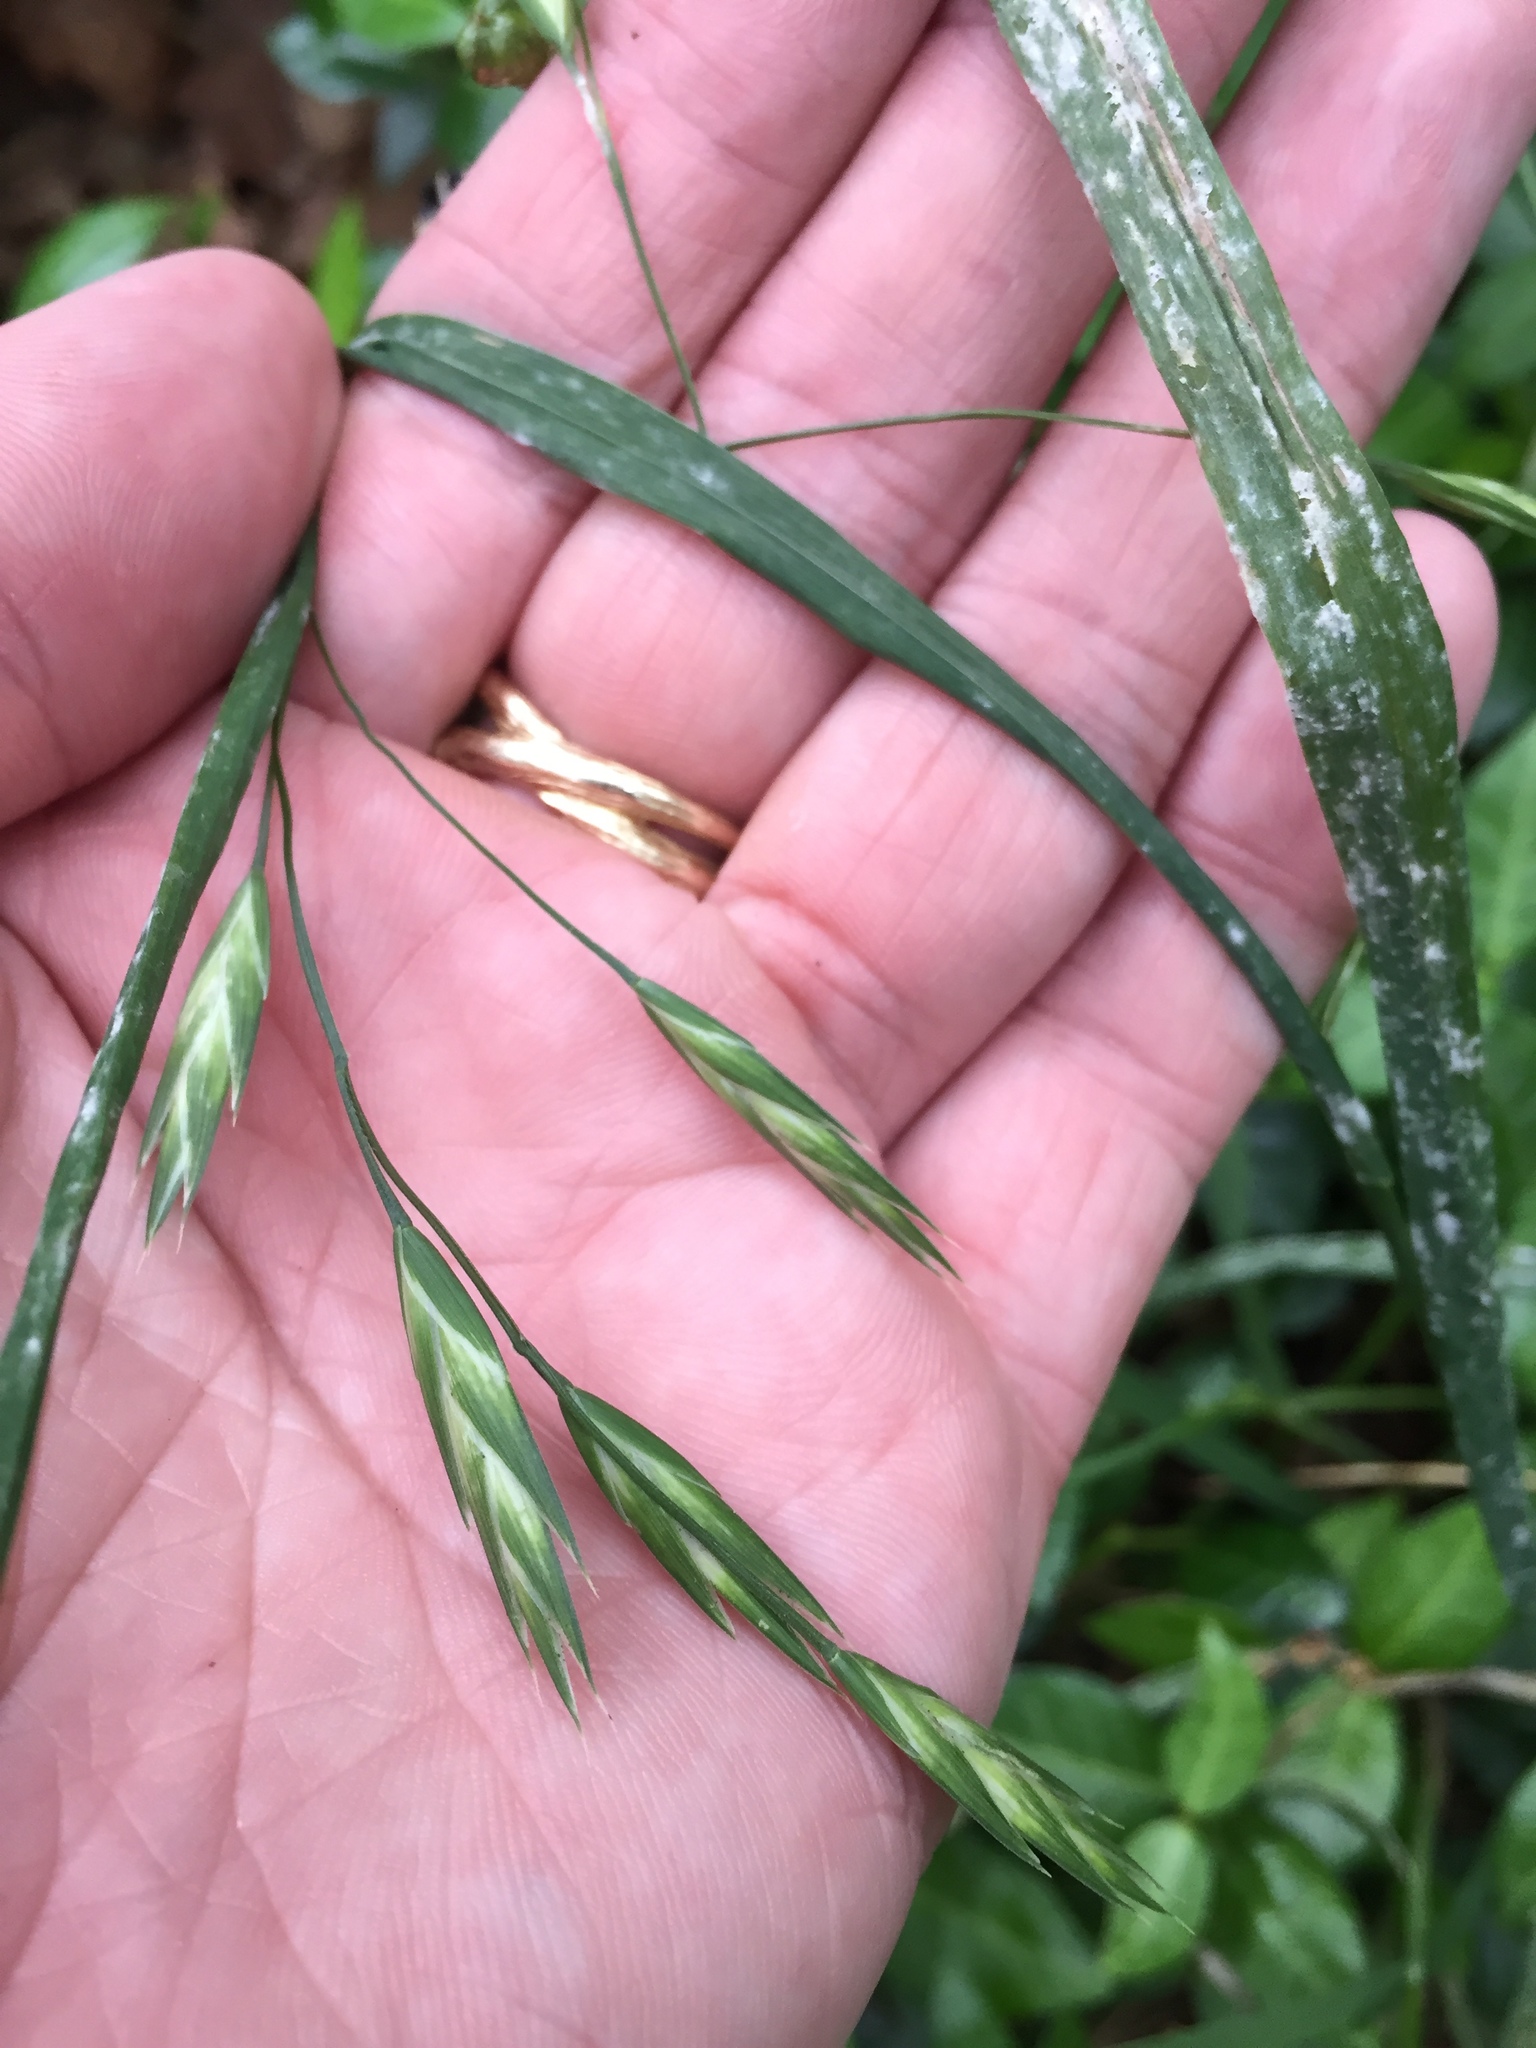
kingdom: Plantae
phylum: Tracheophyta
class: Liliopsida
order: Poales
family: Poaceae
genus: Bromus
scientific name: Bromus catharticus
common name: Rescuegrass
